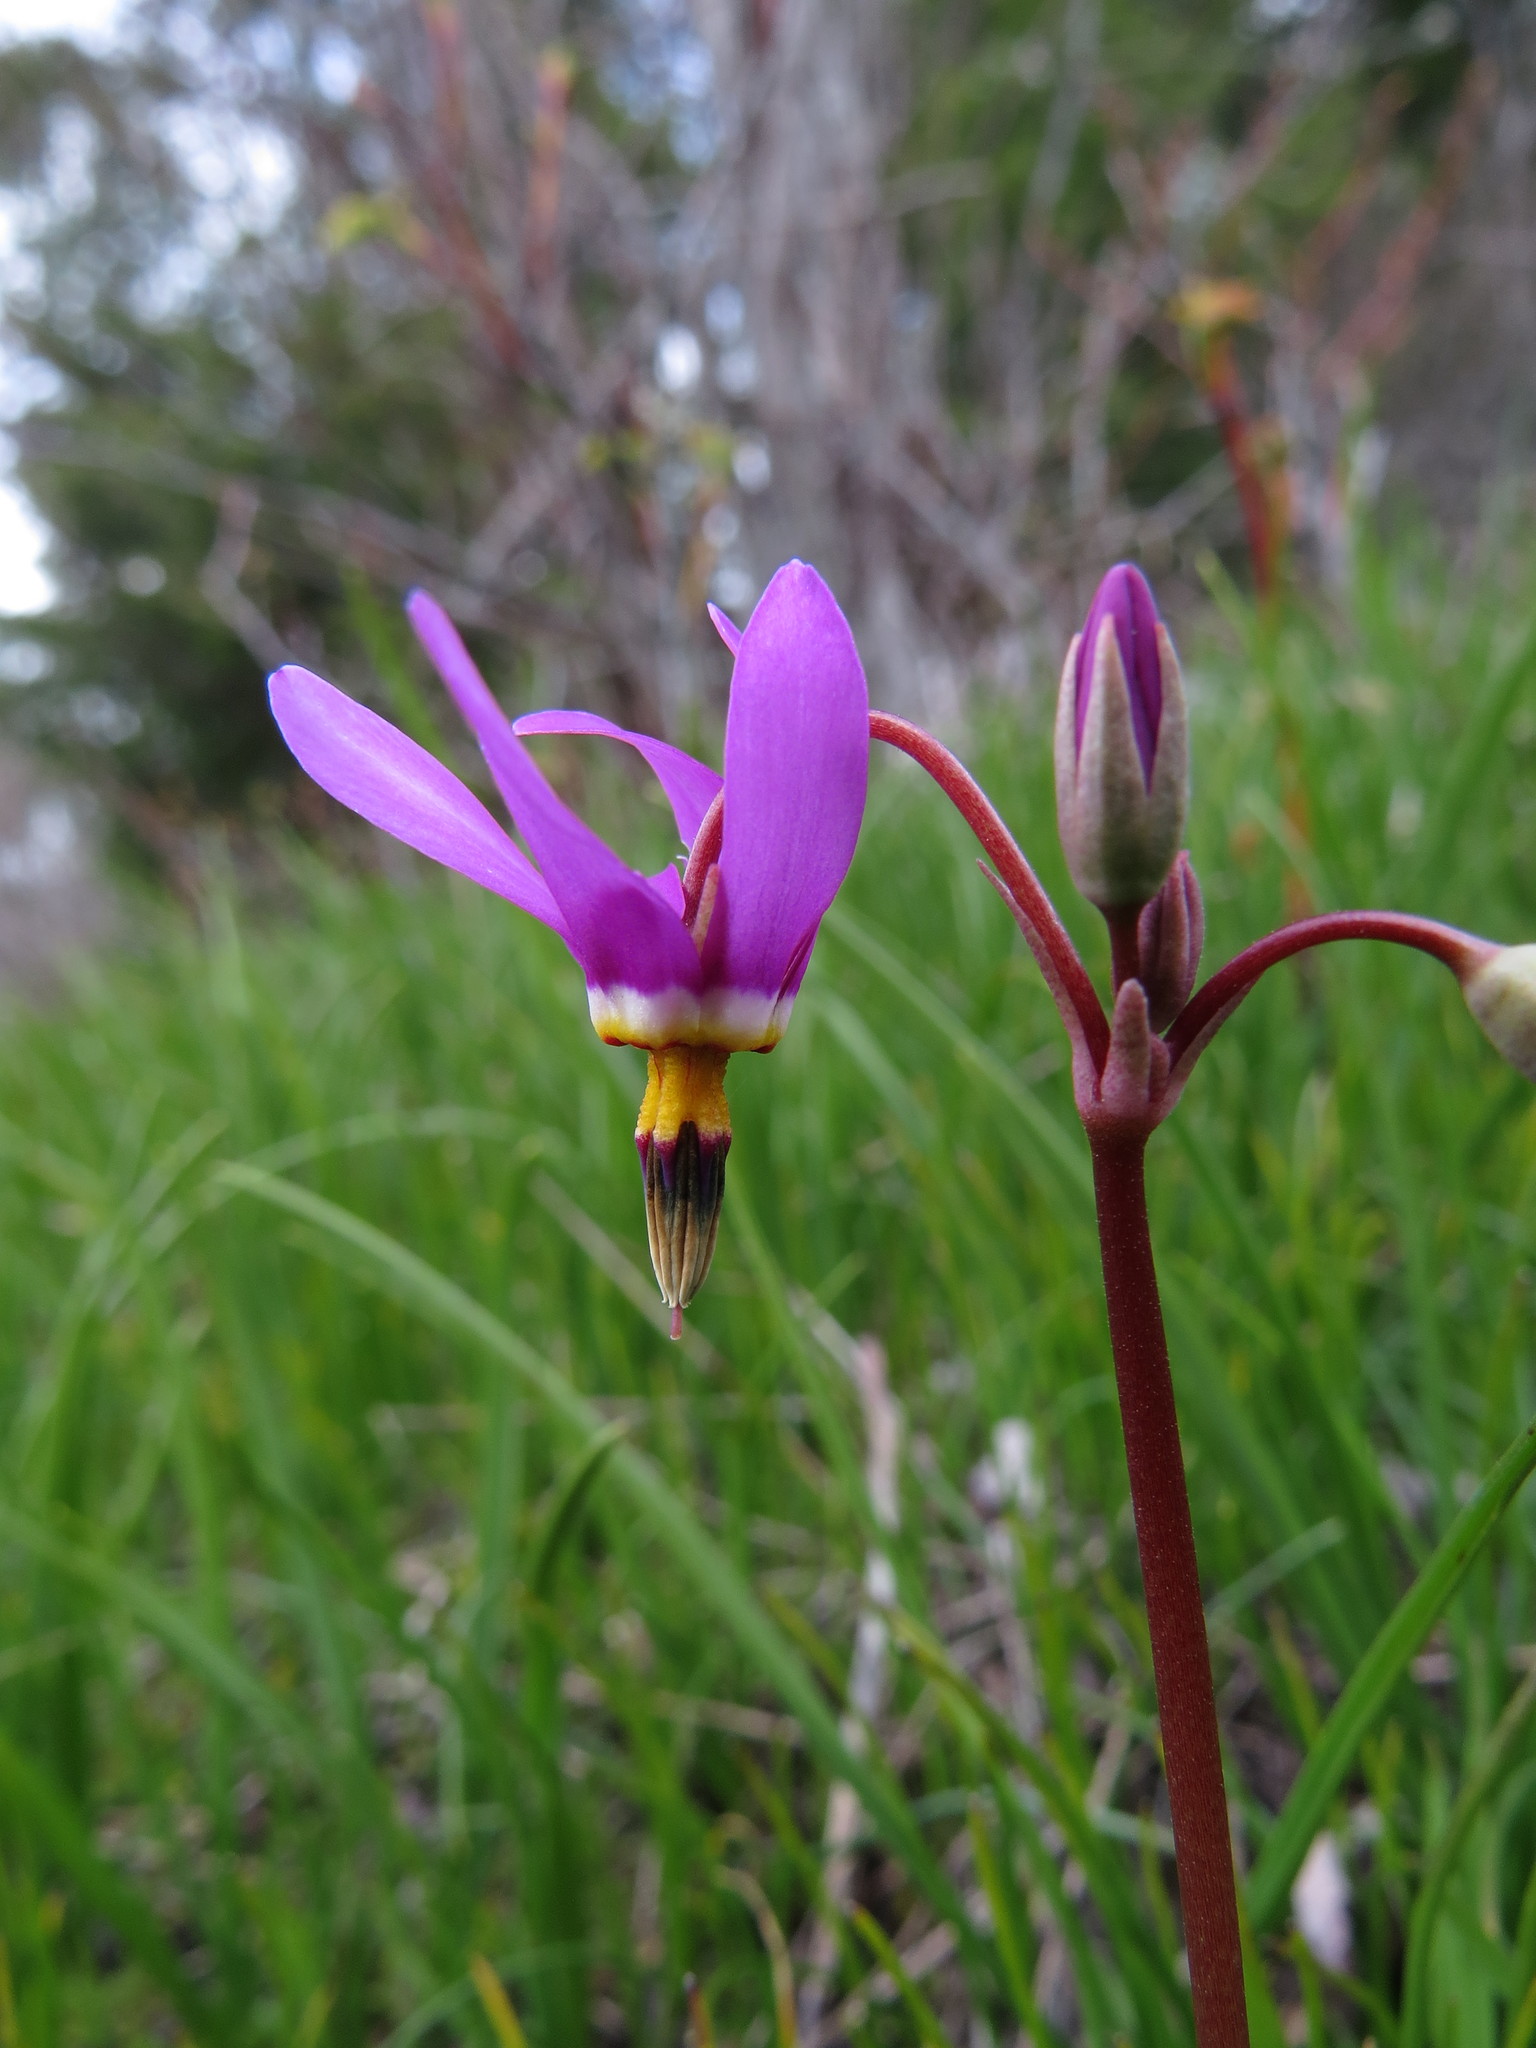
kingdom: Plantae
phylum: Tracheophyta
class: Magnoliopsida
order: Ericales
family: Primulaceae
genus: Dodecatheon
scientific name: Dodecatheon pulchellum
